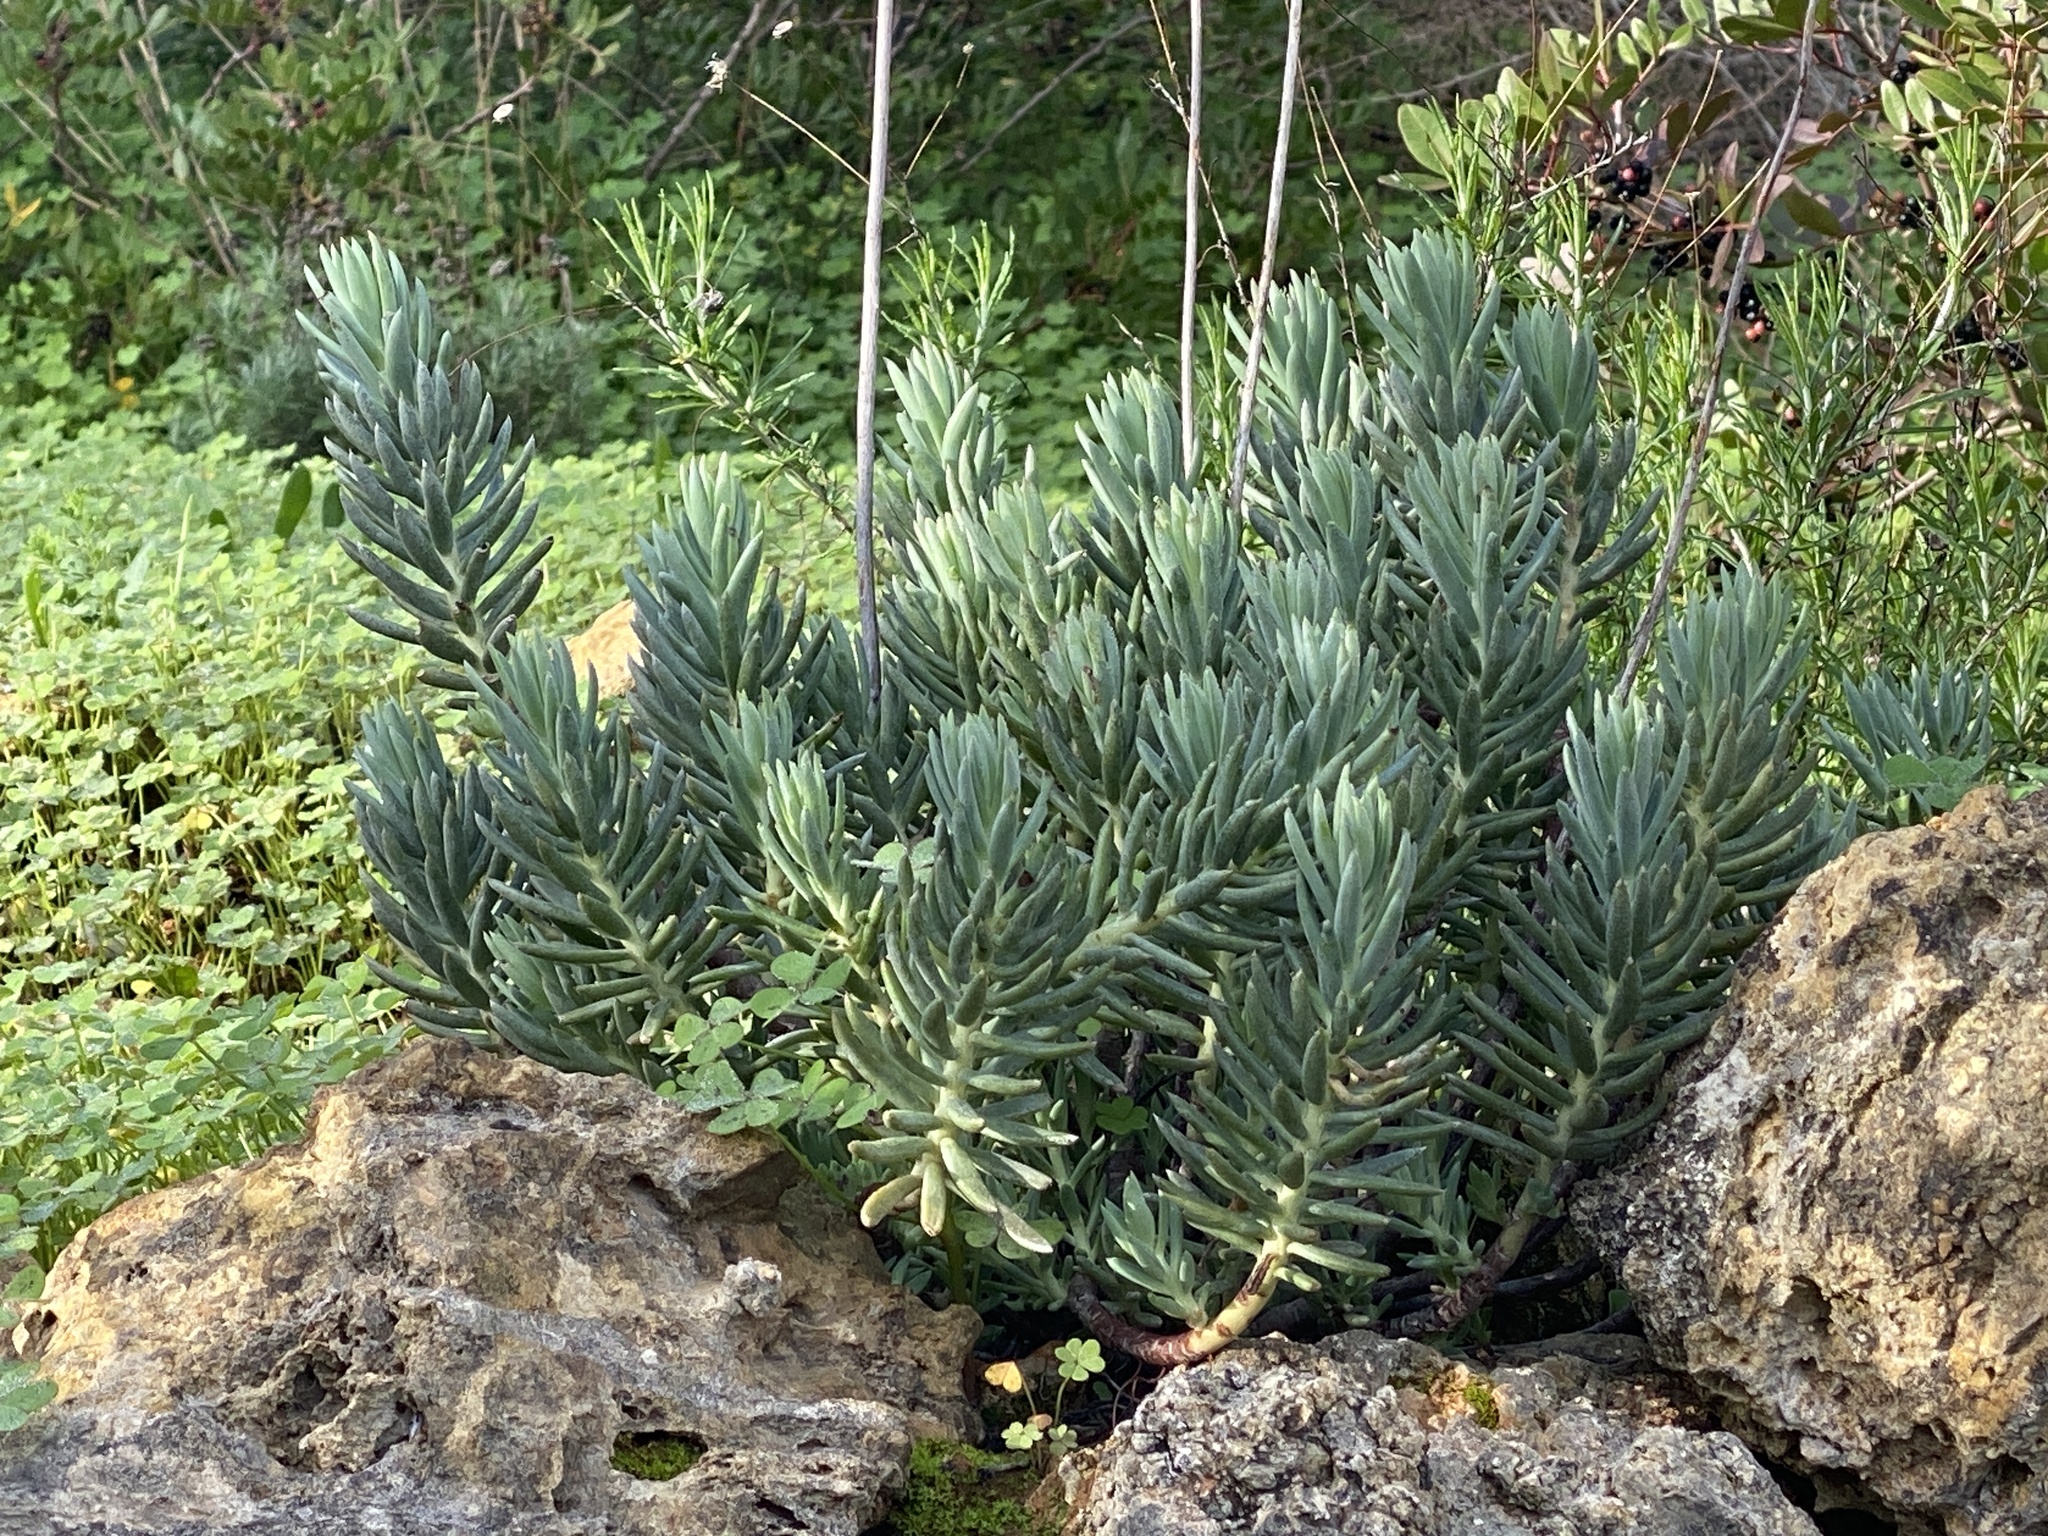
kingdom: Plantae
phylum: Tracheophyta
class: Magnoliopsida
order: Saxifragales
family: Crassulaceae
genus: Petrosedum
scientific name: Petrosedum sediforme
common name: Pale stonecrop
